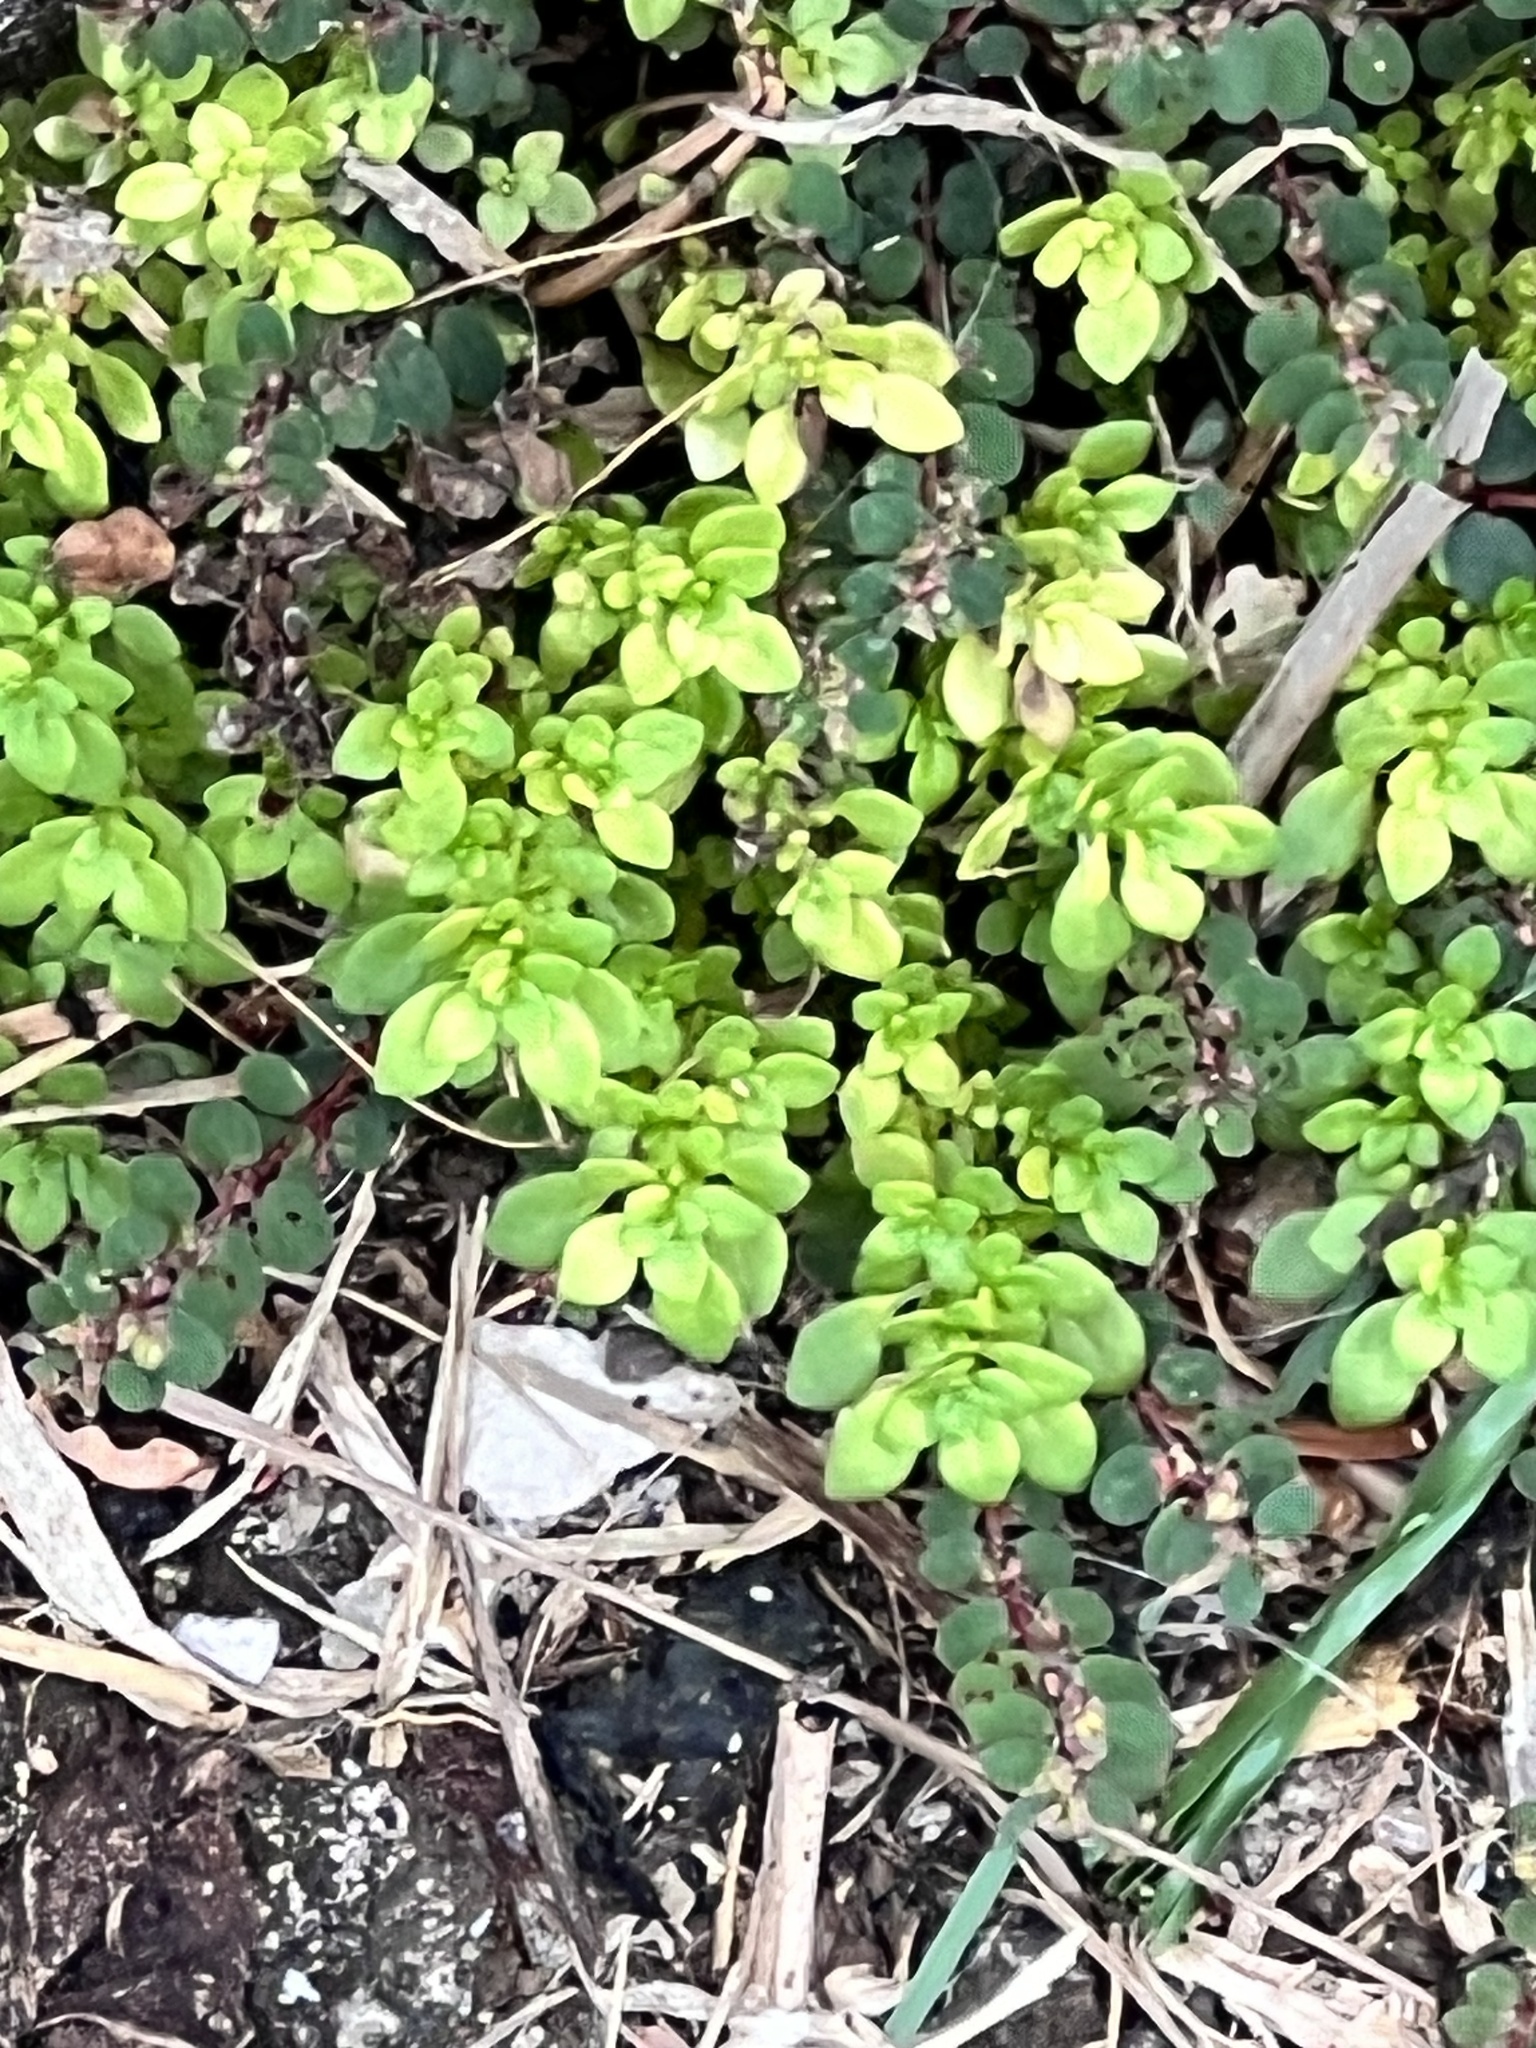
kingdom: Plantae
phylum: Tracheophyta
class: Magnoliopsida
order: Rosales
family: Urticaceae
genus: Pilea
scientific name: Pilea microphylla
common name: Artillery-plant
